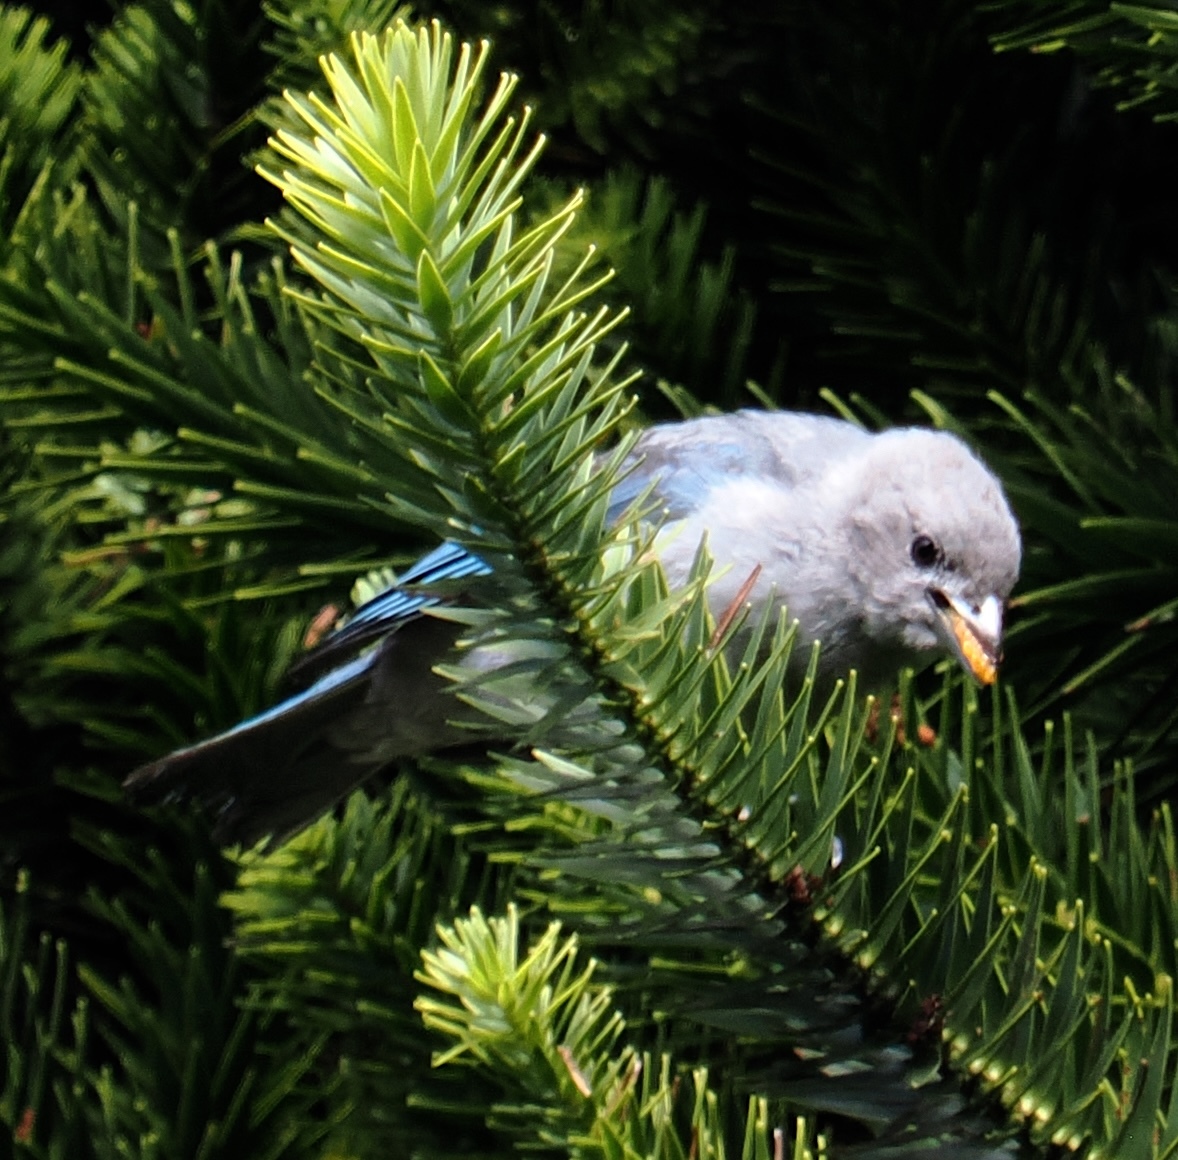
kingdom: Animalia
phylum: Chordata
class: Aves
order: Passeriformes
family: Thraupidae
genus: Thraupis
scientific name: Thraupis sayaca
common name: Sayaca tanager
